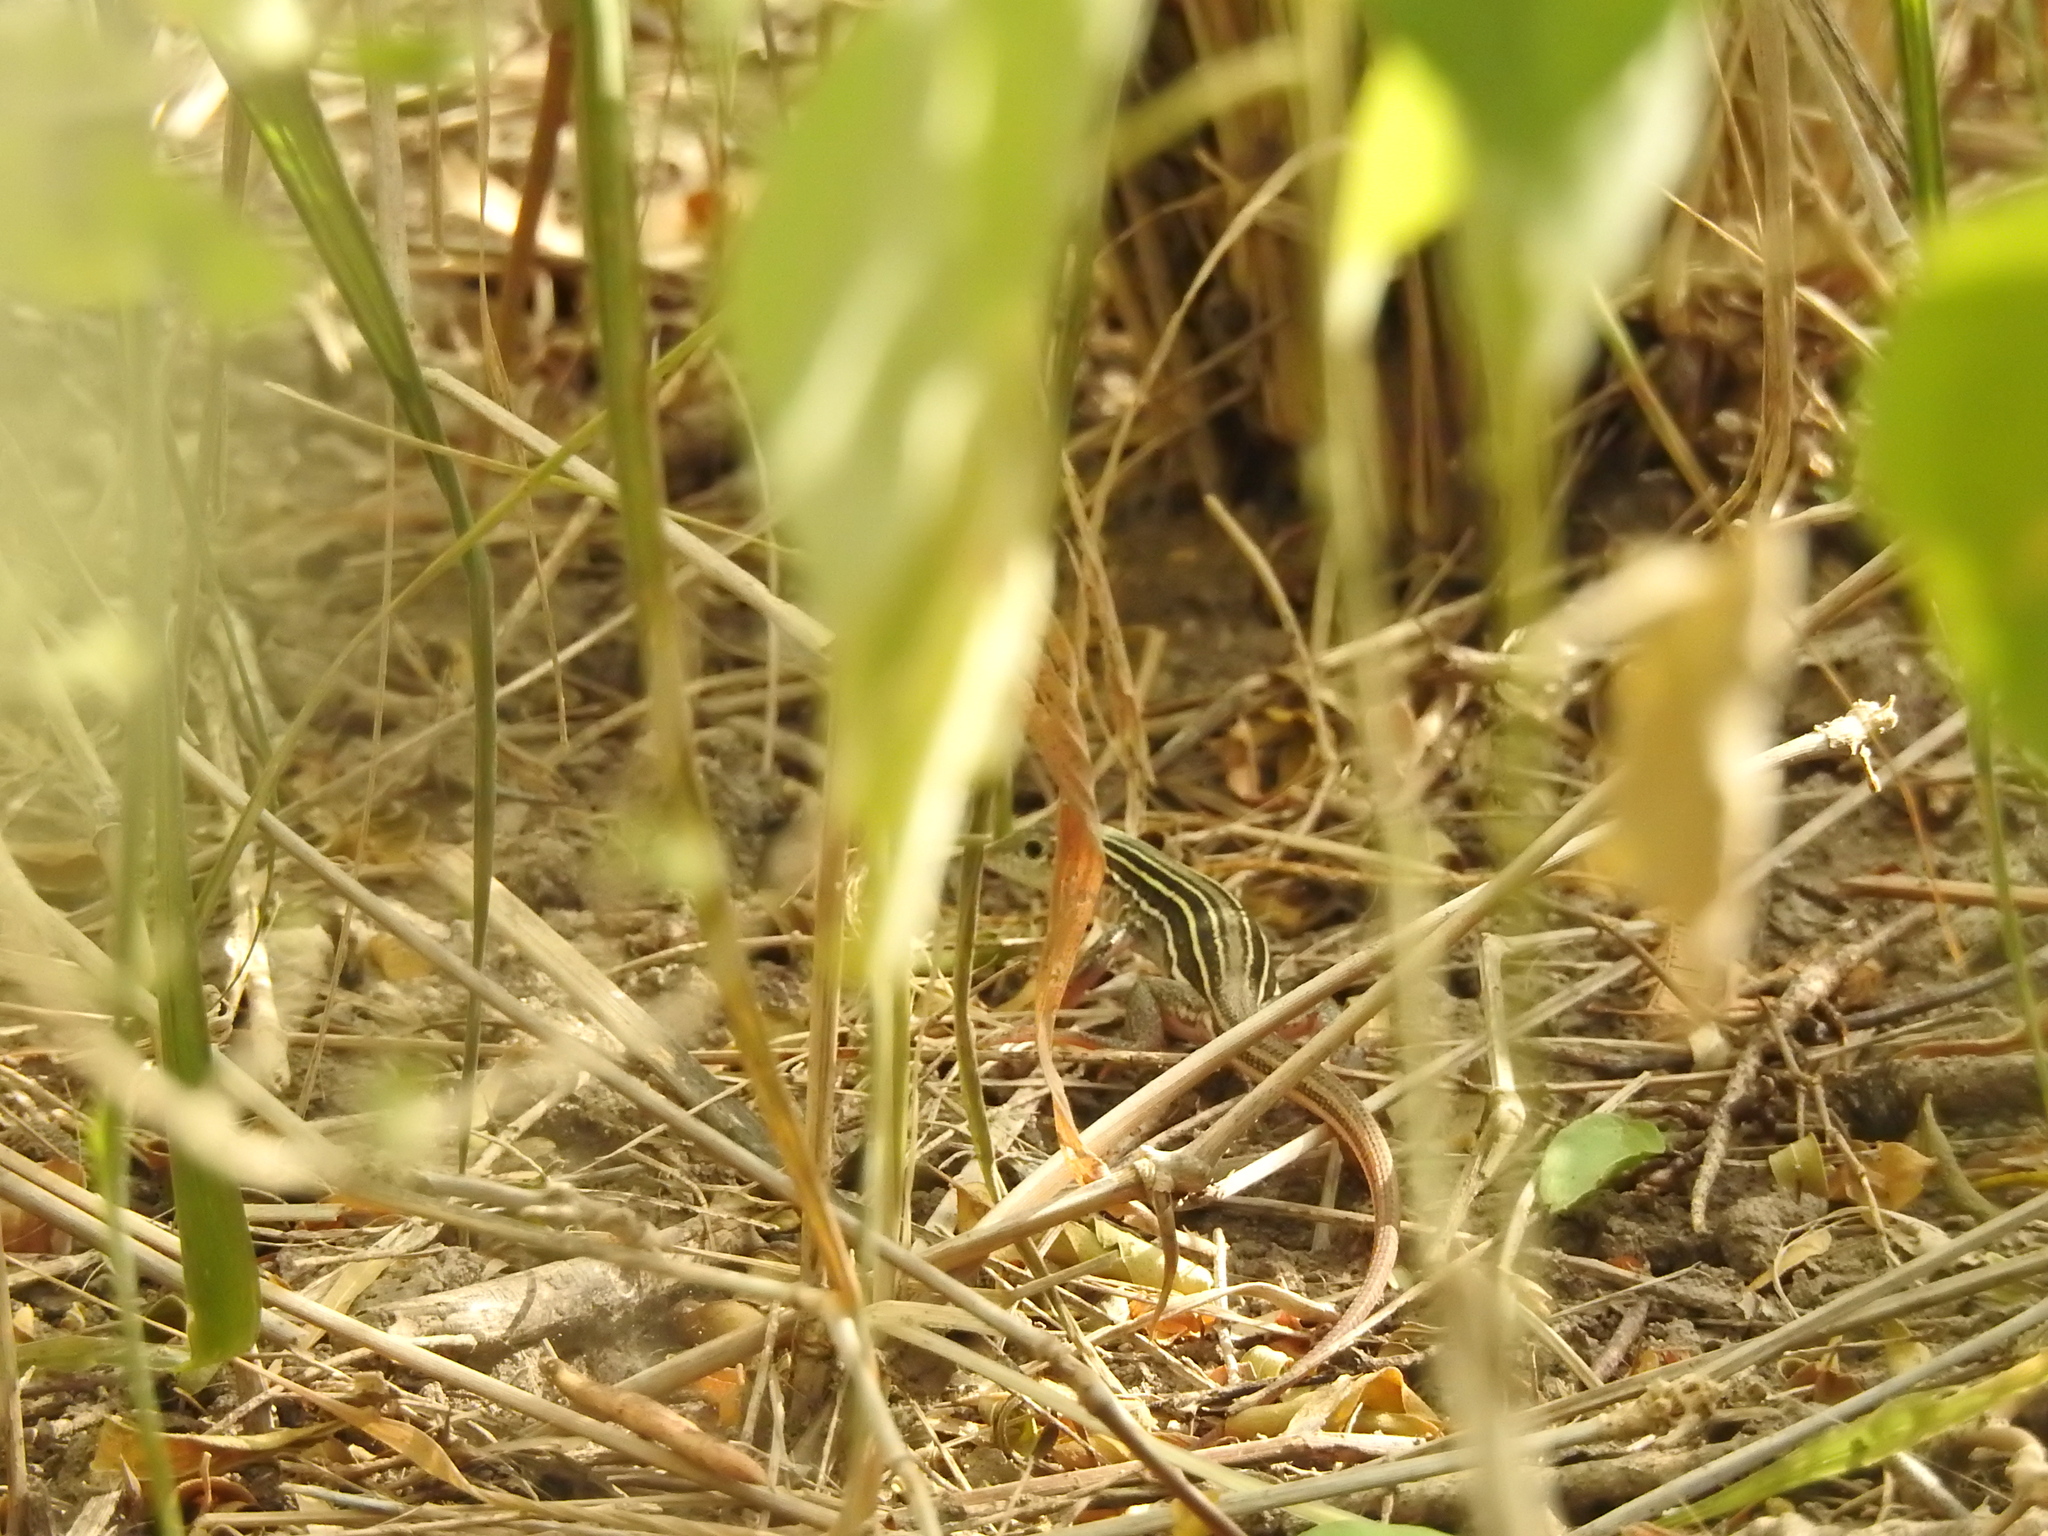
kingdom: Animalia
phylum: Chordata
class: Squamata
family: Teiidae
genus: Aspidoscelis
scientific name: Aspidoscelis gularis
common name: Eastern spotted whiptail
